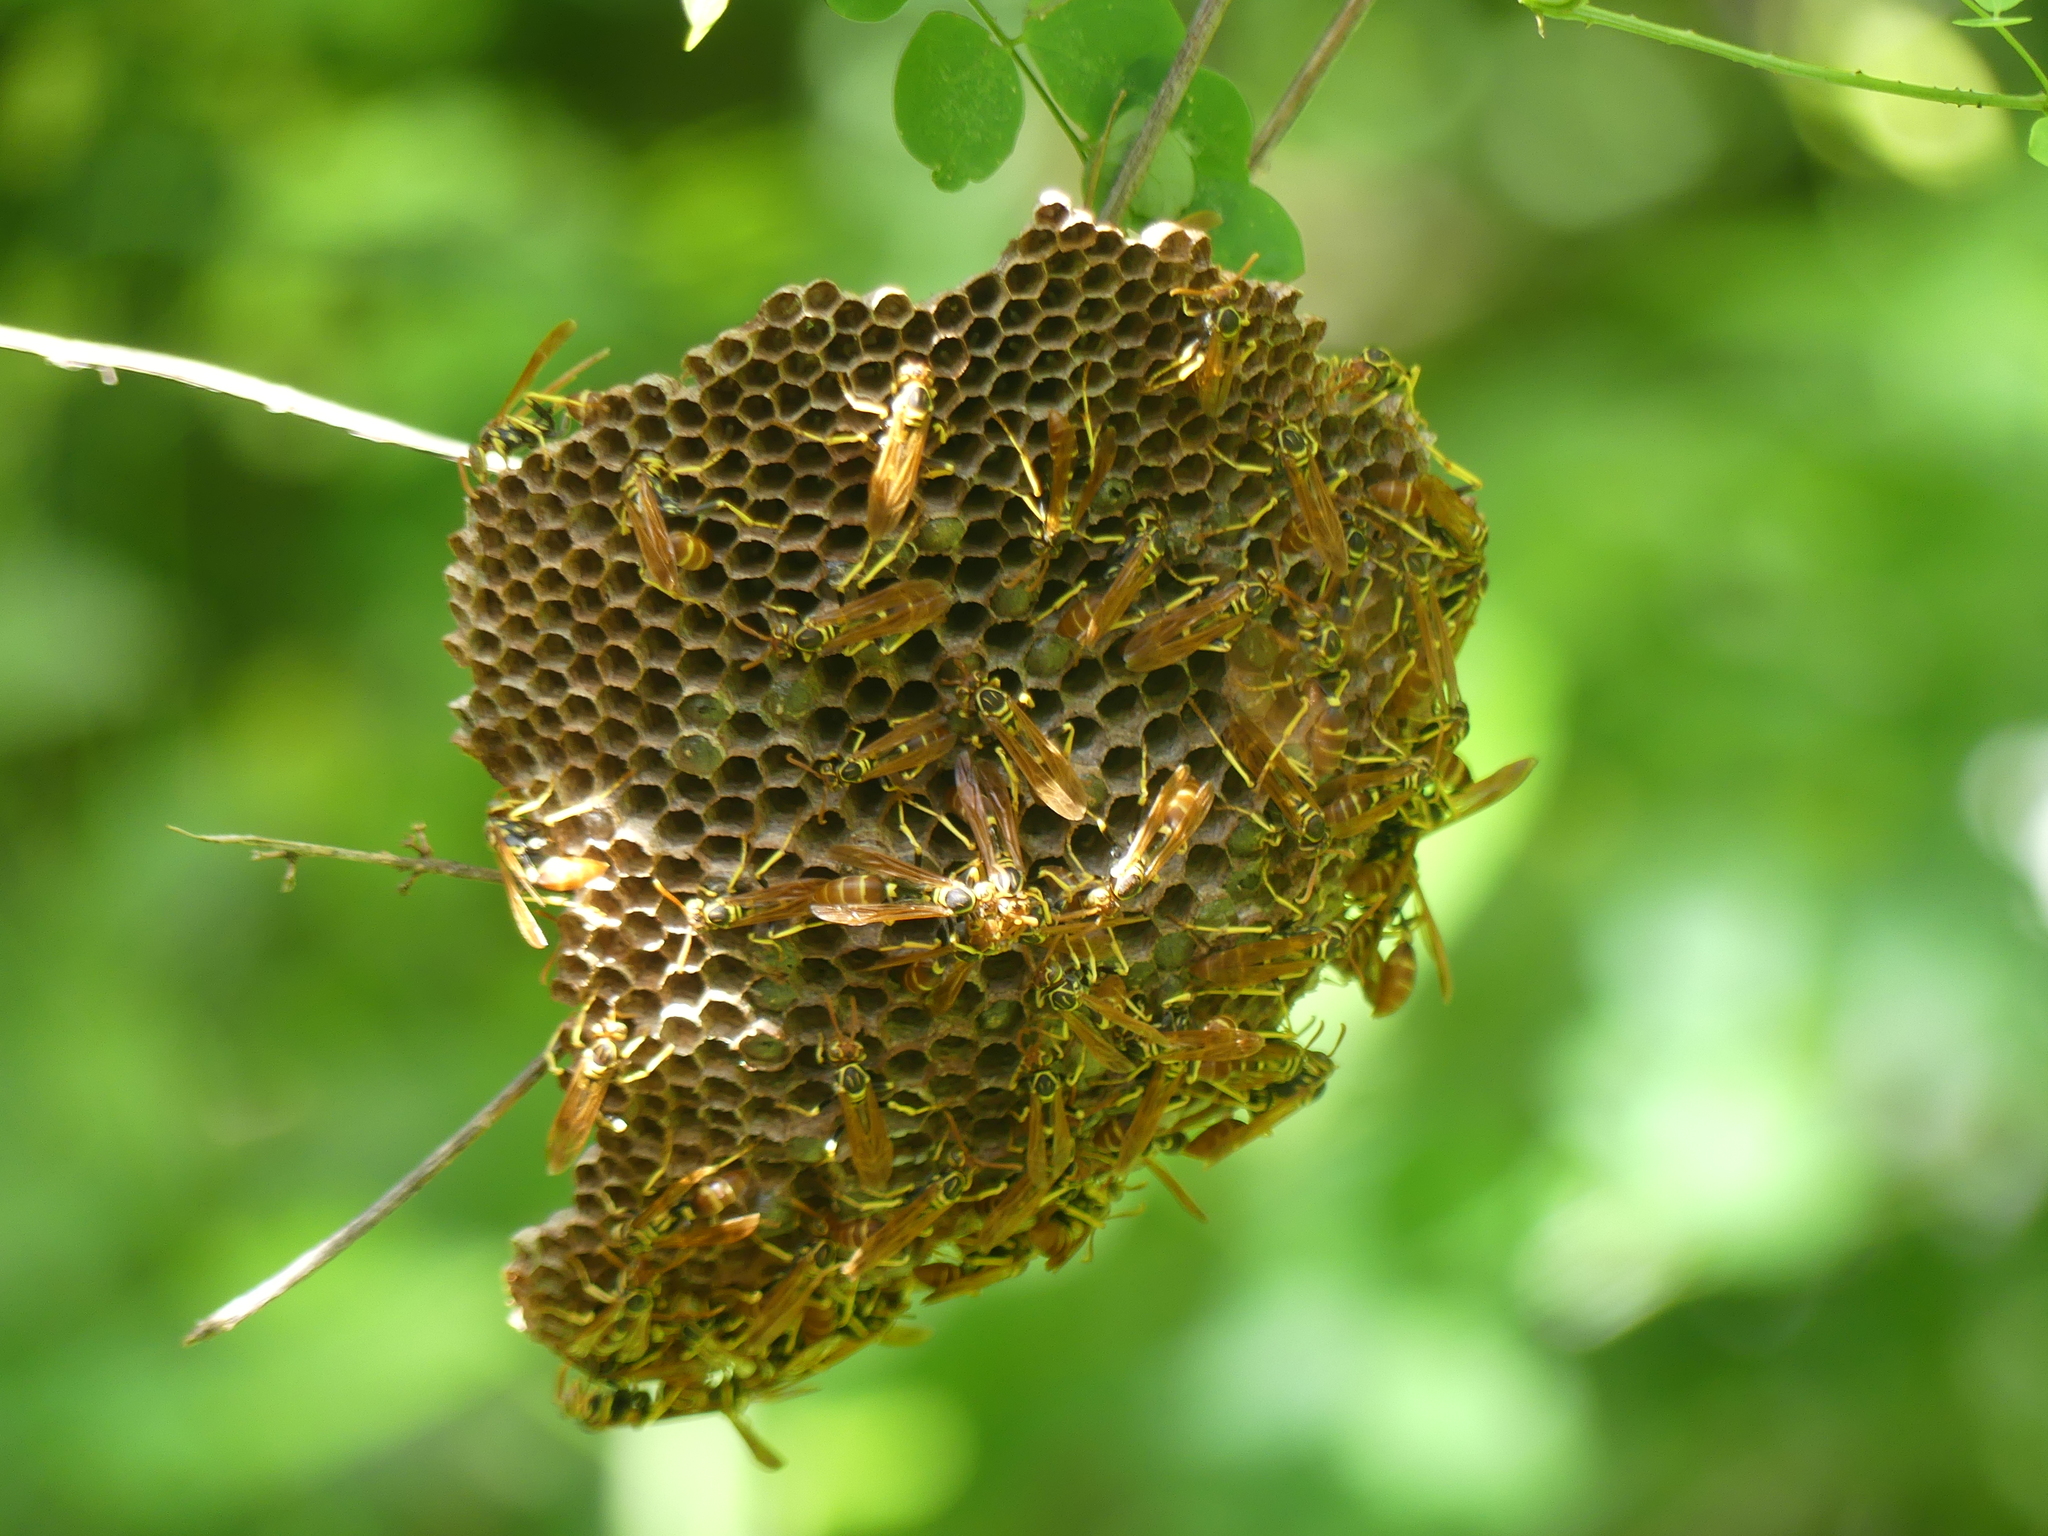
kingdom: Animalia
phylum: Arthropoda
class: Insecta
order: Hymenoptera
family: Vespidae
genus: Mischocyttarus
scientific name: Mischocyttarus phthisicus
